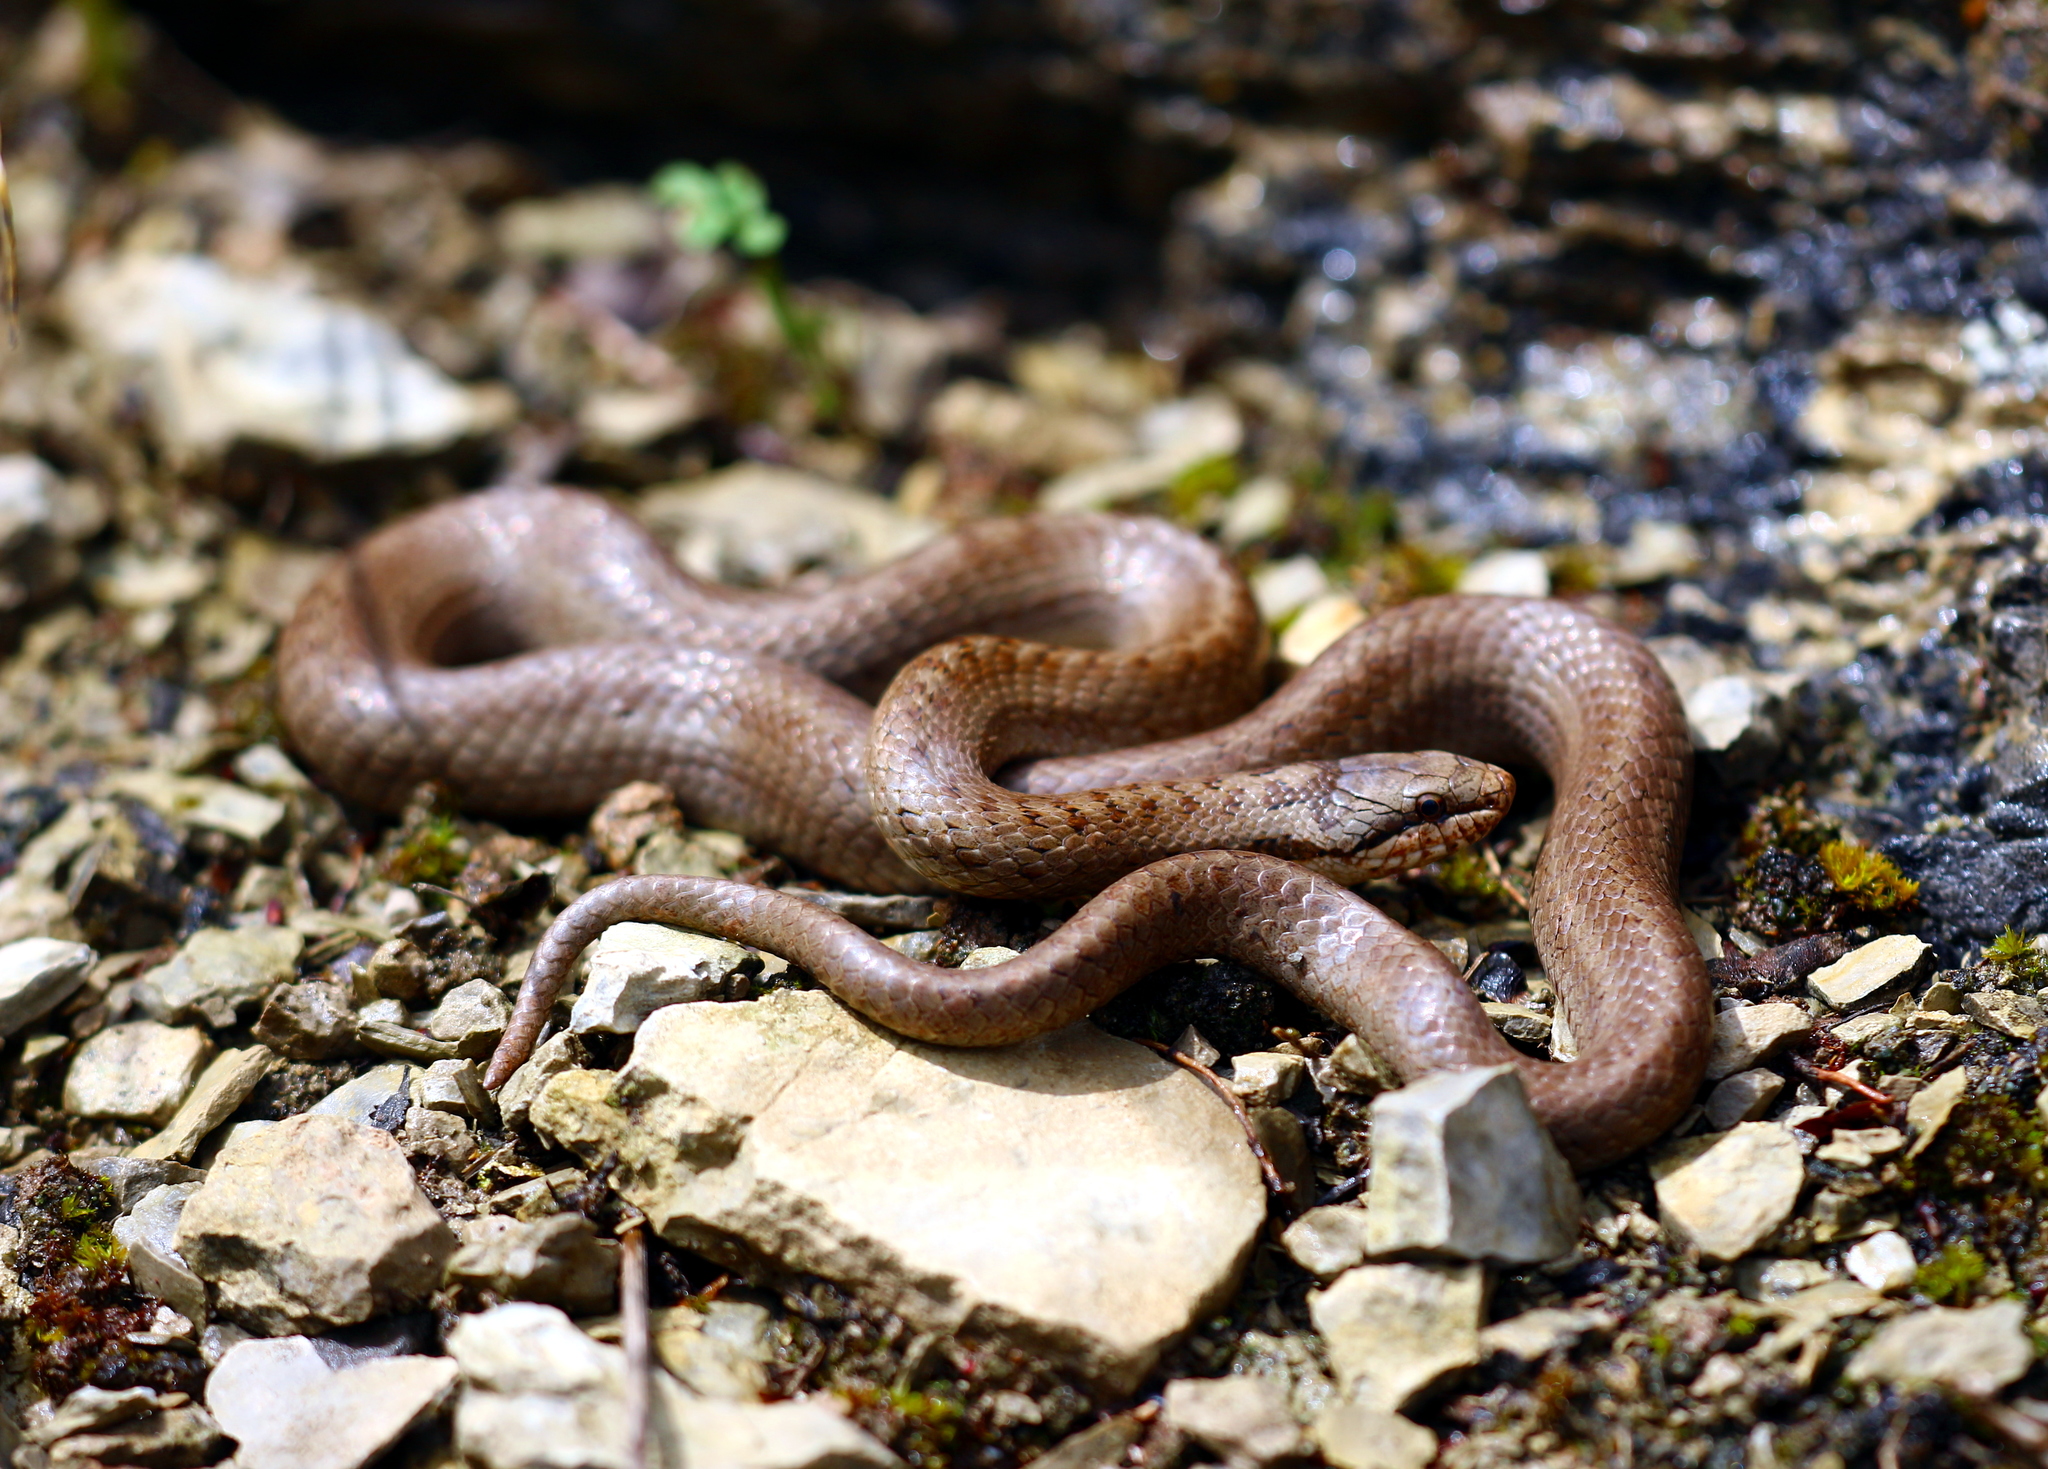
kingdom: Animalia
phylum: Chordata
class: Squamata
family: Colubridae
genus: Coronella
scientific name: Coronella austriaca
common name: Smooth snake
